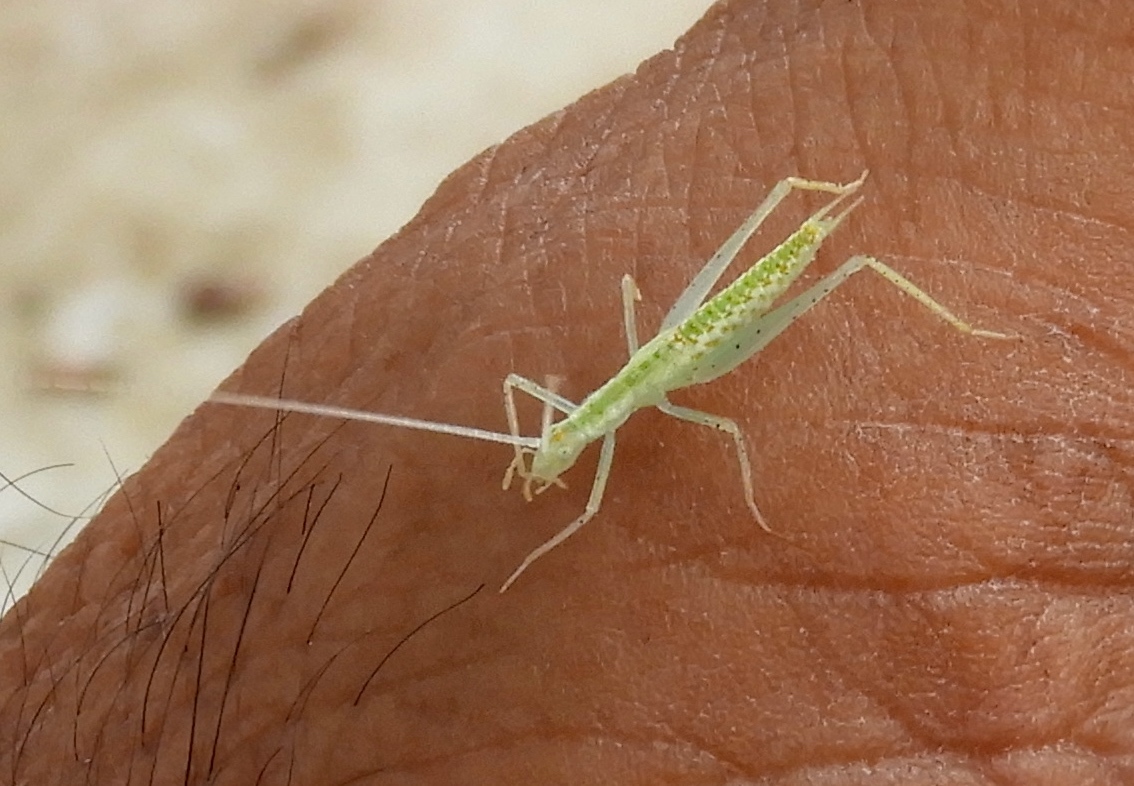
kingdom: Animalia
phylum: Arthropoda
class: Insecta
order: Orthoptera
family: Gryllidae
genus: Oecanthus
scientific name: Oecanthus
